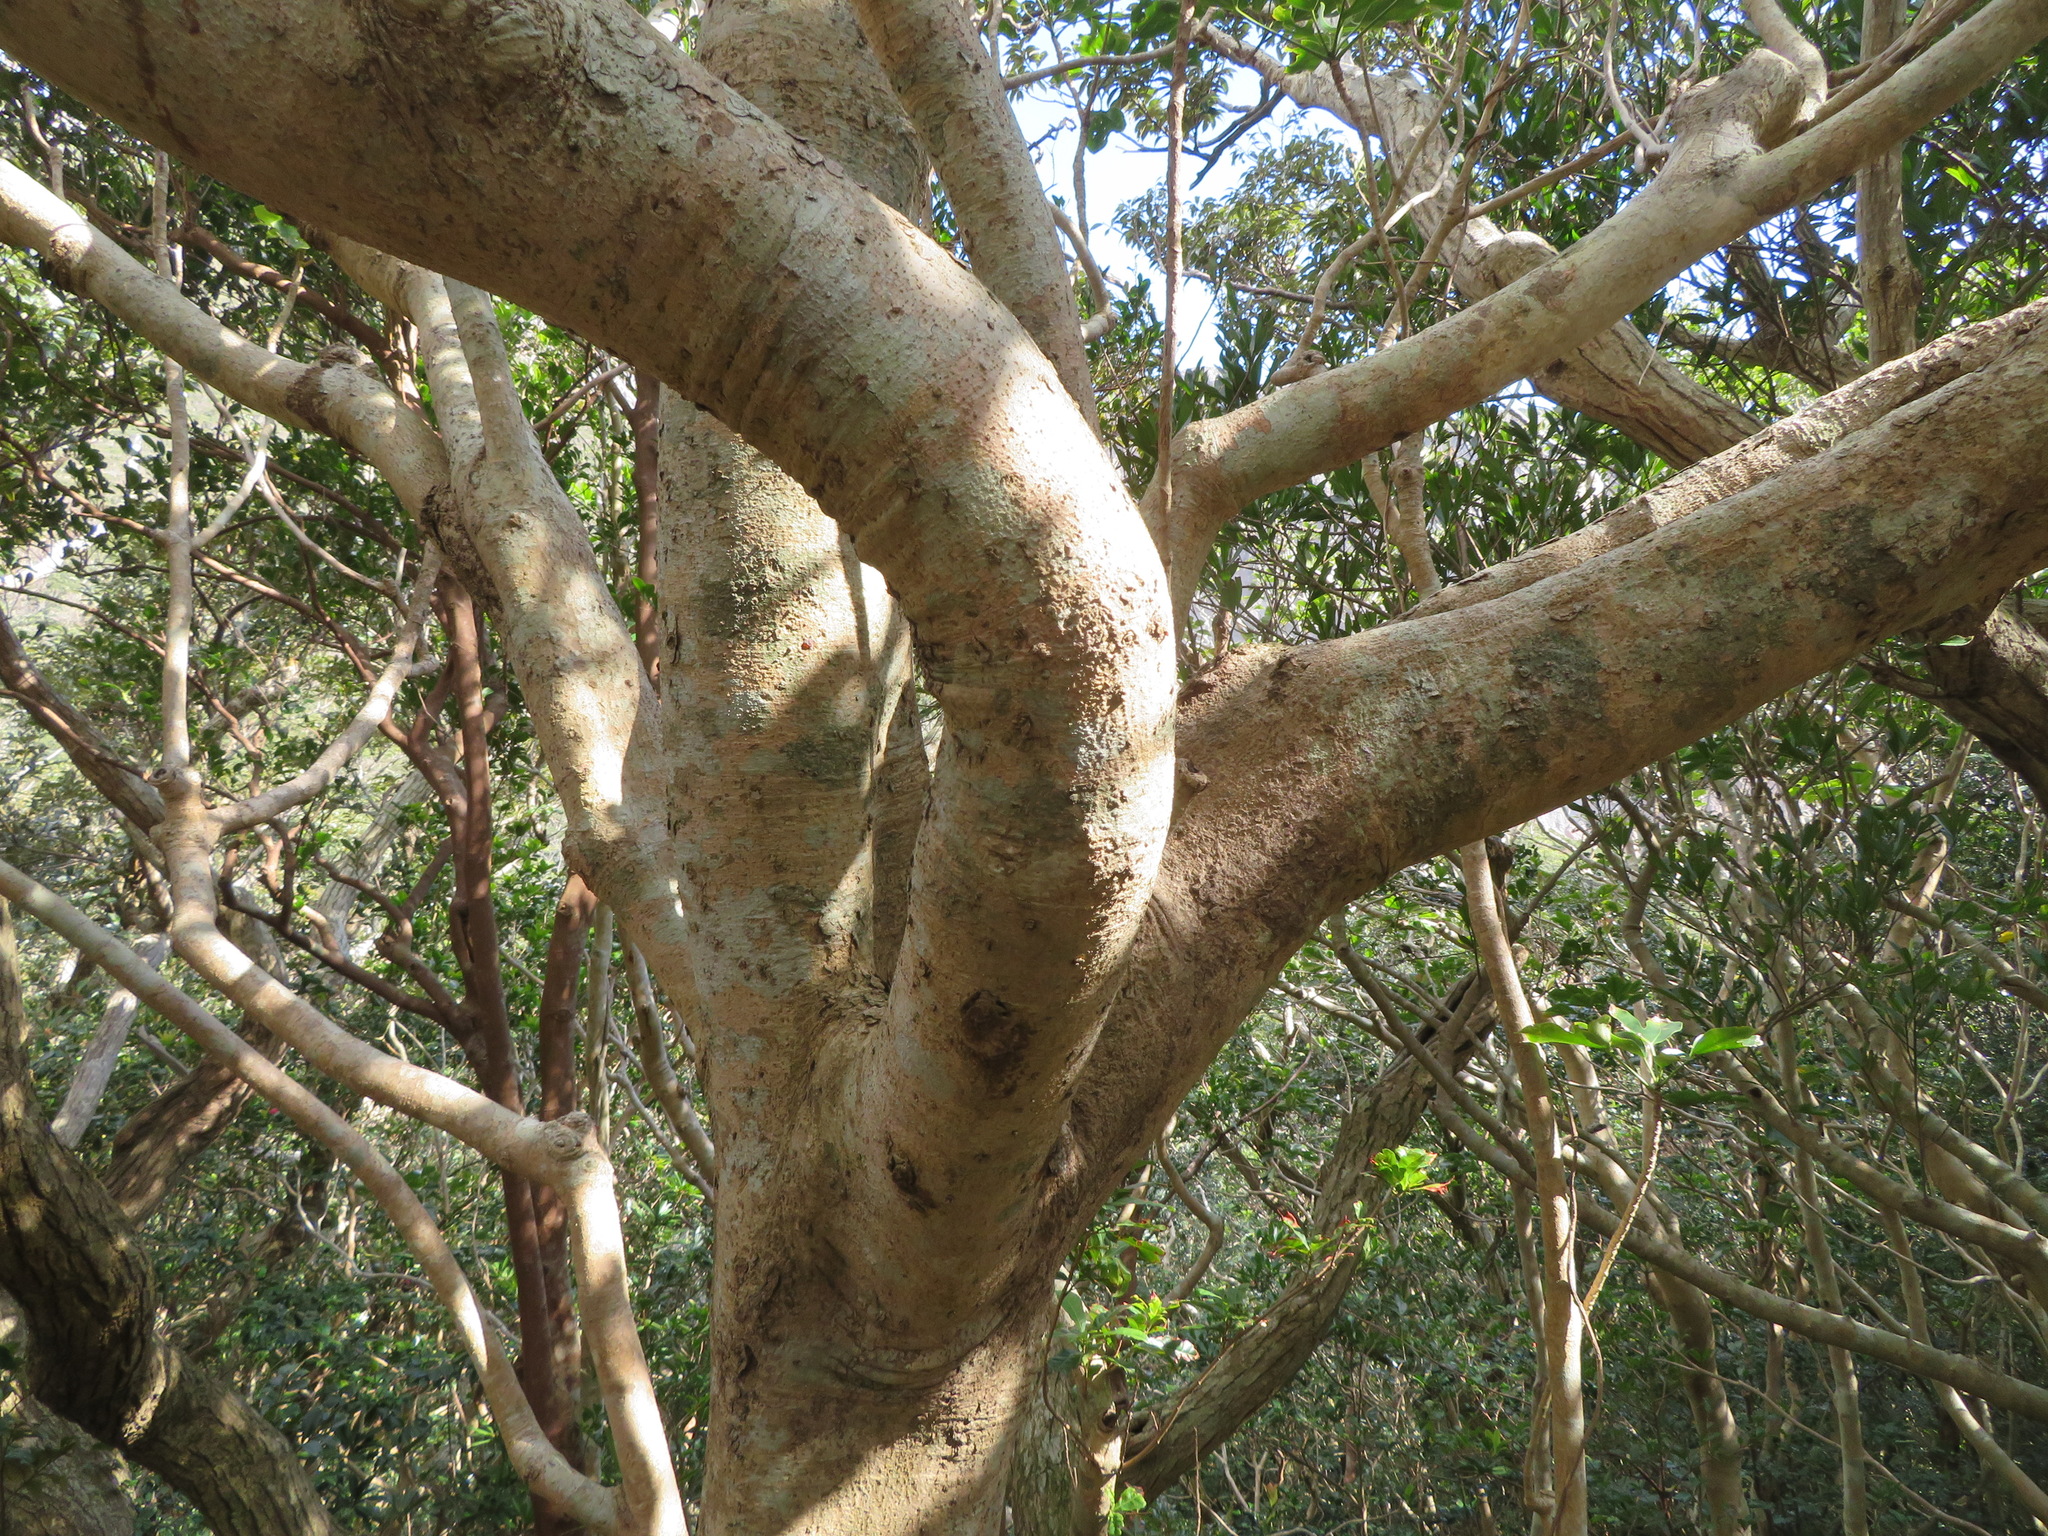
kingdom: Plantae
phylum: Tracheophyta
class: Magnoliopsida
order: Apiales
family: Araliaceae
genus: Dendropanax
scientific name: Dendropanax trifidus
